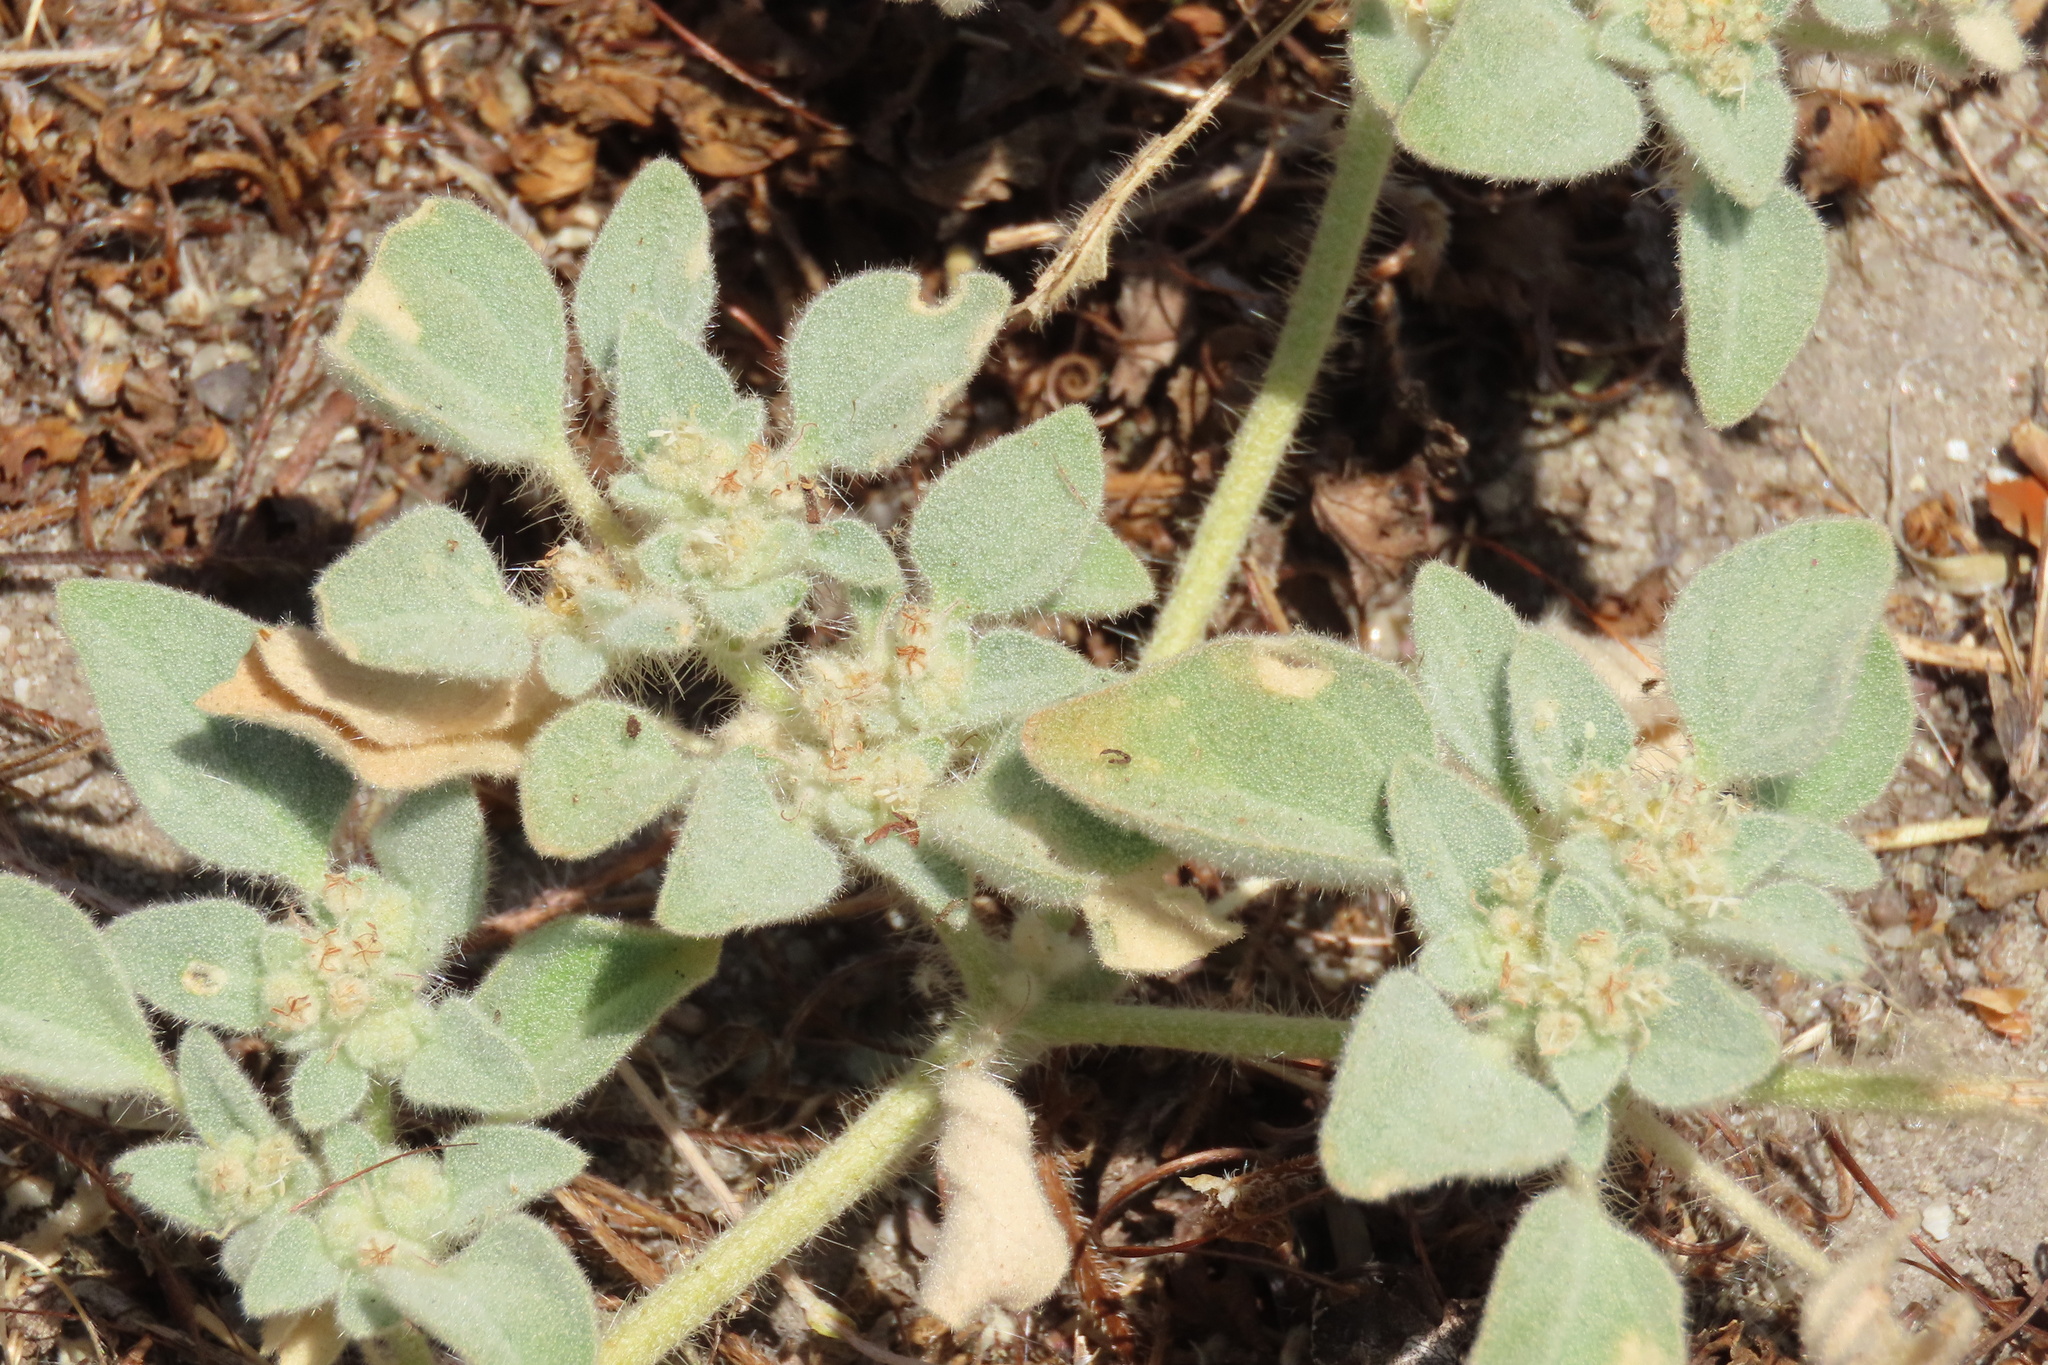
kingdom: Plantae
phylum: Tracheophyta
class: Magnoliopsida
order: Malpighiales
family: Euphorbiaceae
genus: Croton
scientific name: Croton setiger
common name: Dove weed
